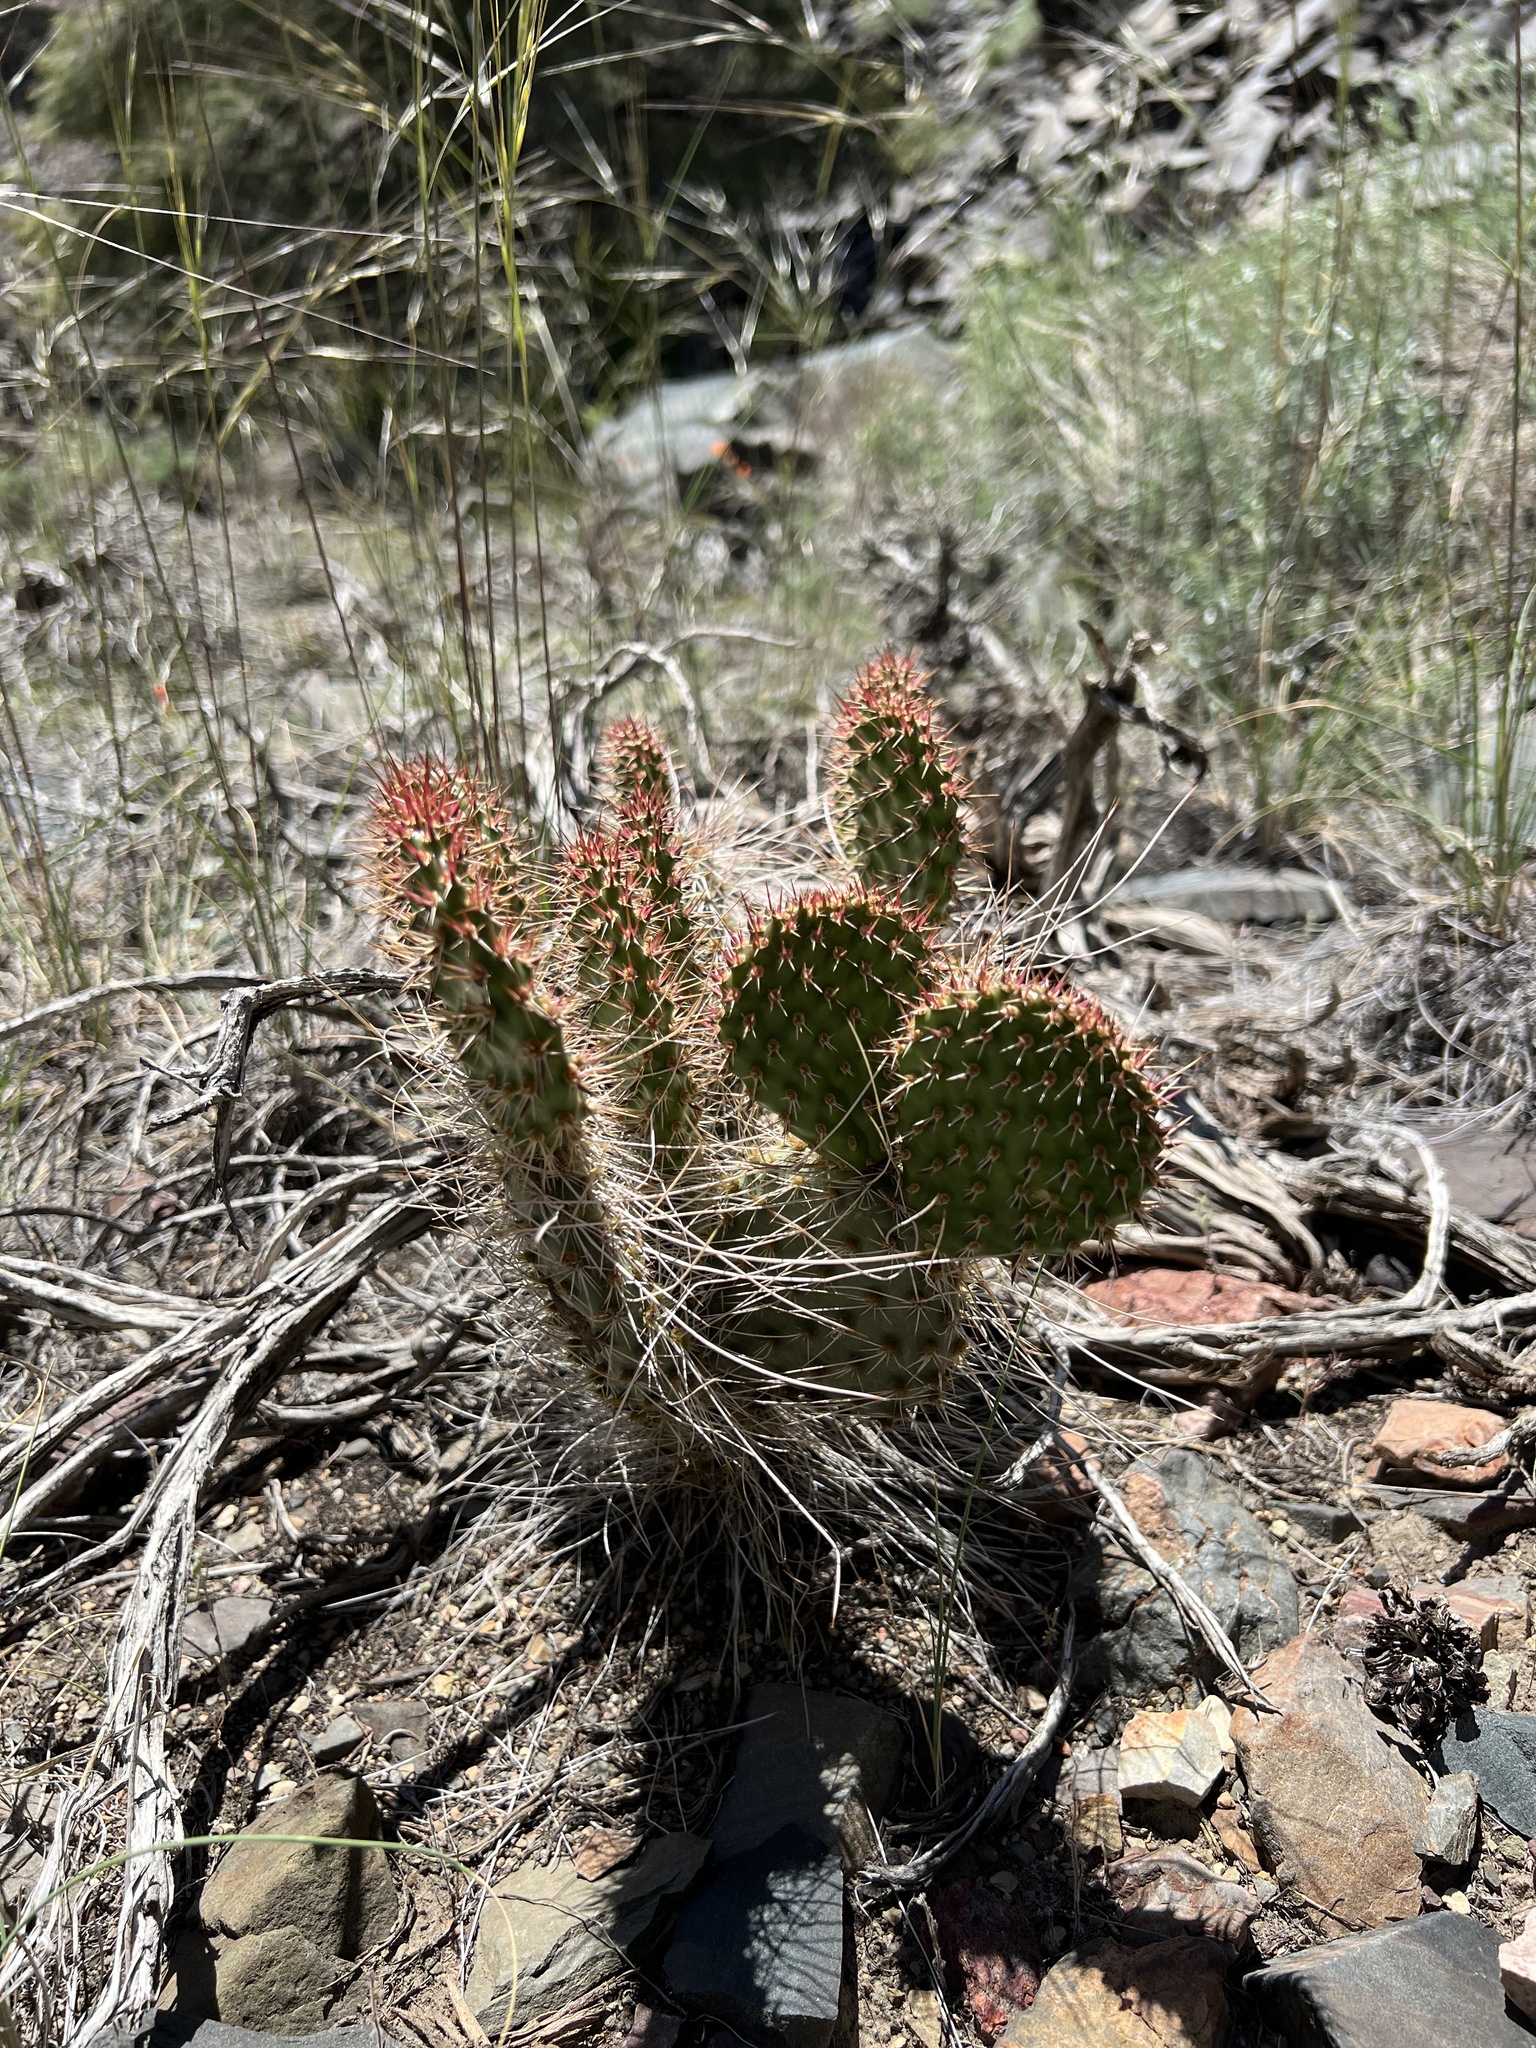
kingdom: Plantae
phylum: Tracheophyta
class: Magnoliopsida
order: Caryophyllales
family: Cactaceae
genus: Opuntia
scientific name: Opuntia polyacantha
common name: Plains prickly-pear
